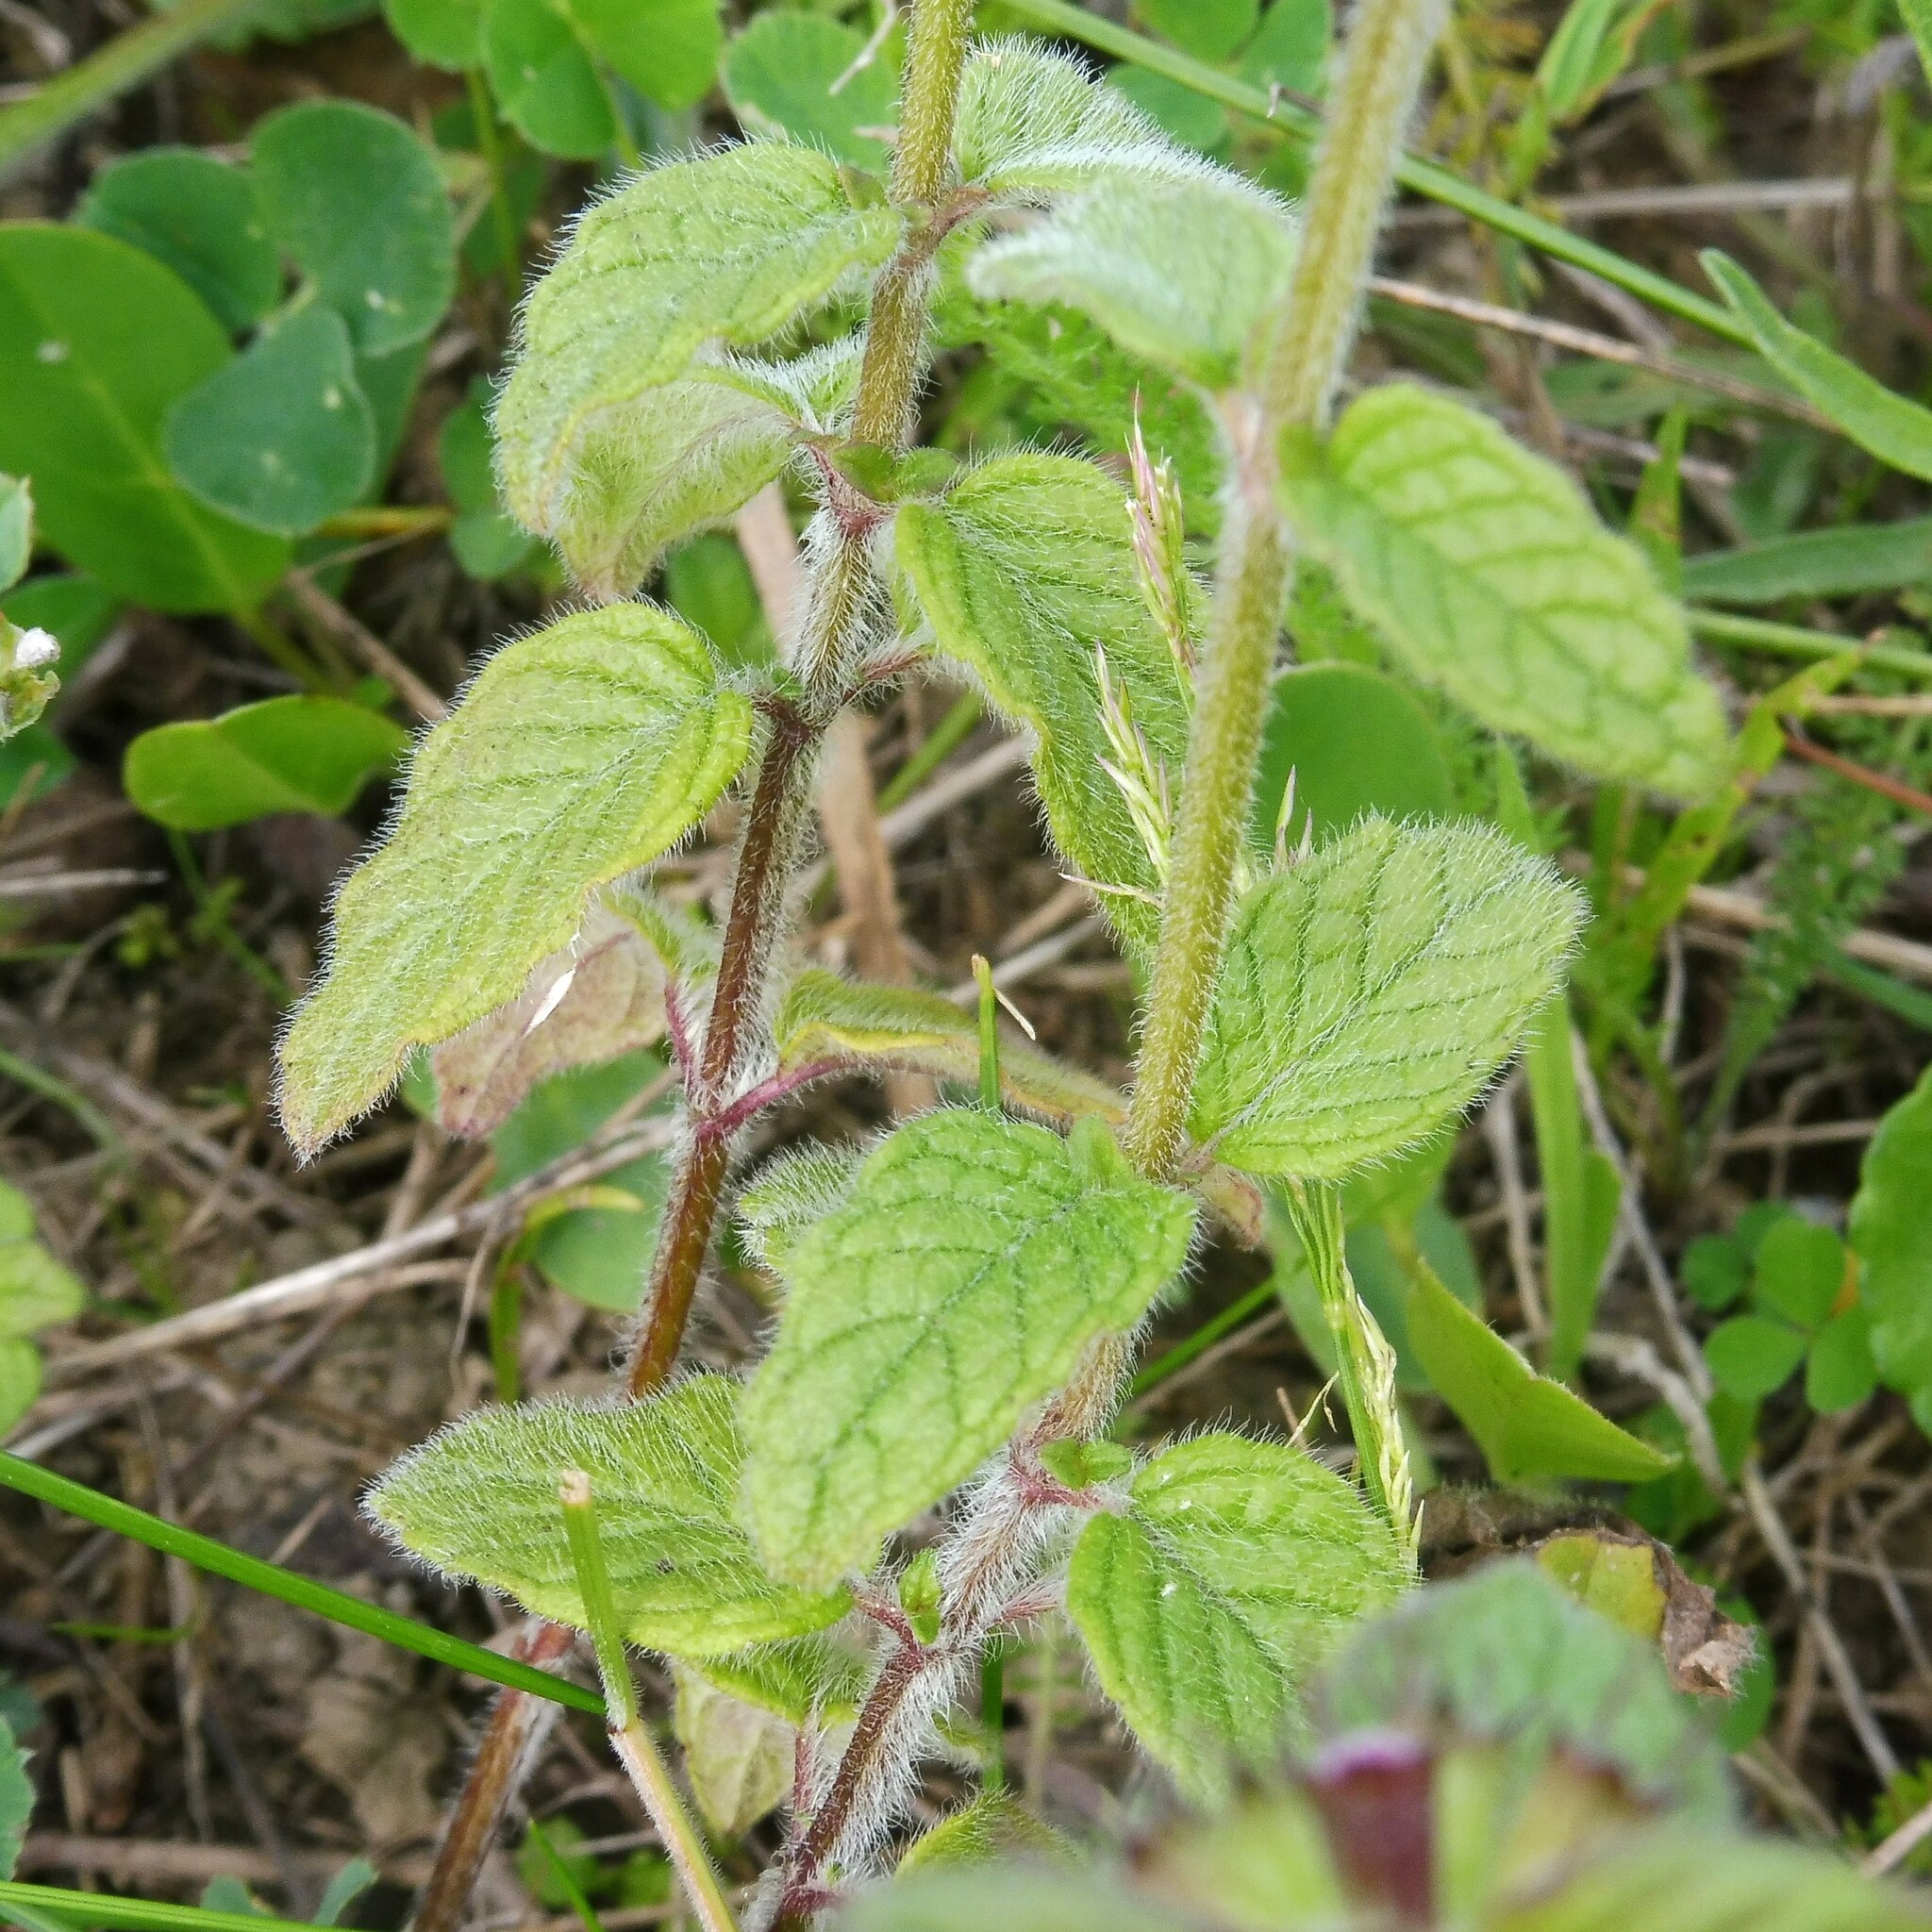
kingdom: Plantae
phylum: Tracheophyta
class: Magnoliopsida
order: Lamiales
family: Lamiaceae
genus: Clinopodium
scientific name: Clinopodium vulgare
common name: Wild basil
